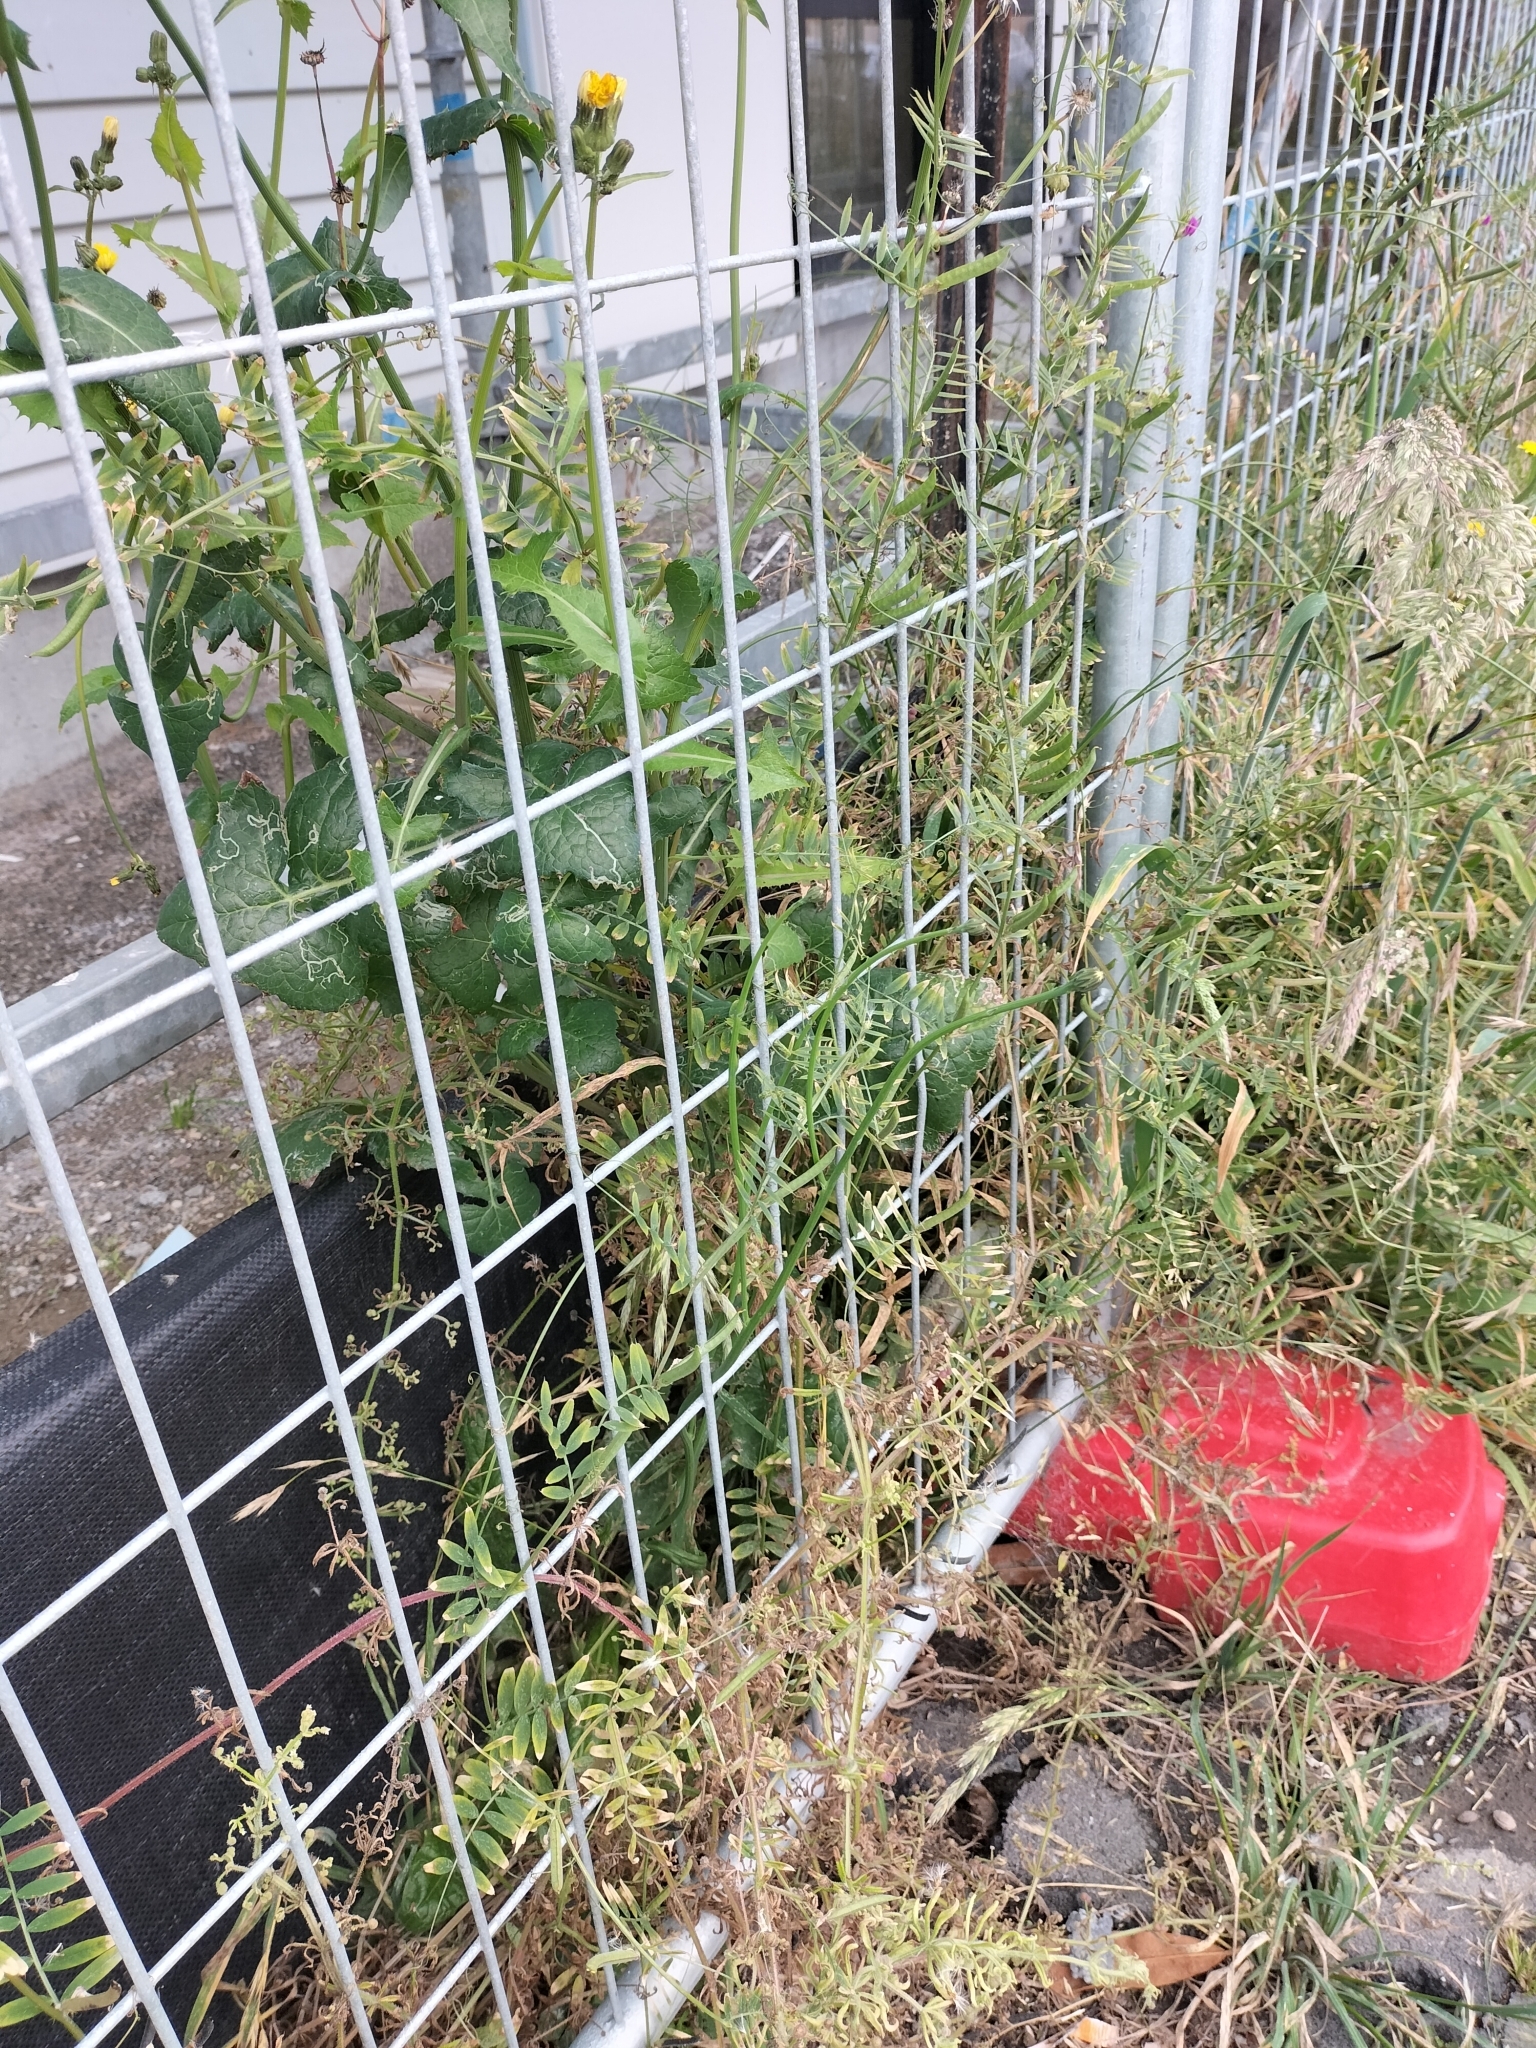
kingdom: Plantae
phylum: Tracheophyta
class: Magnoliopsida
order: Fabales
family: Fabaceae
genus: Vicia
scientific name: Vicia sativa
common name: Garden vetch
